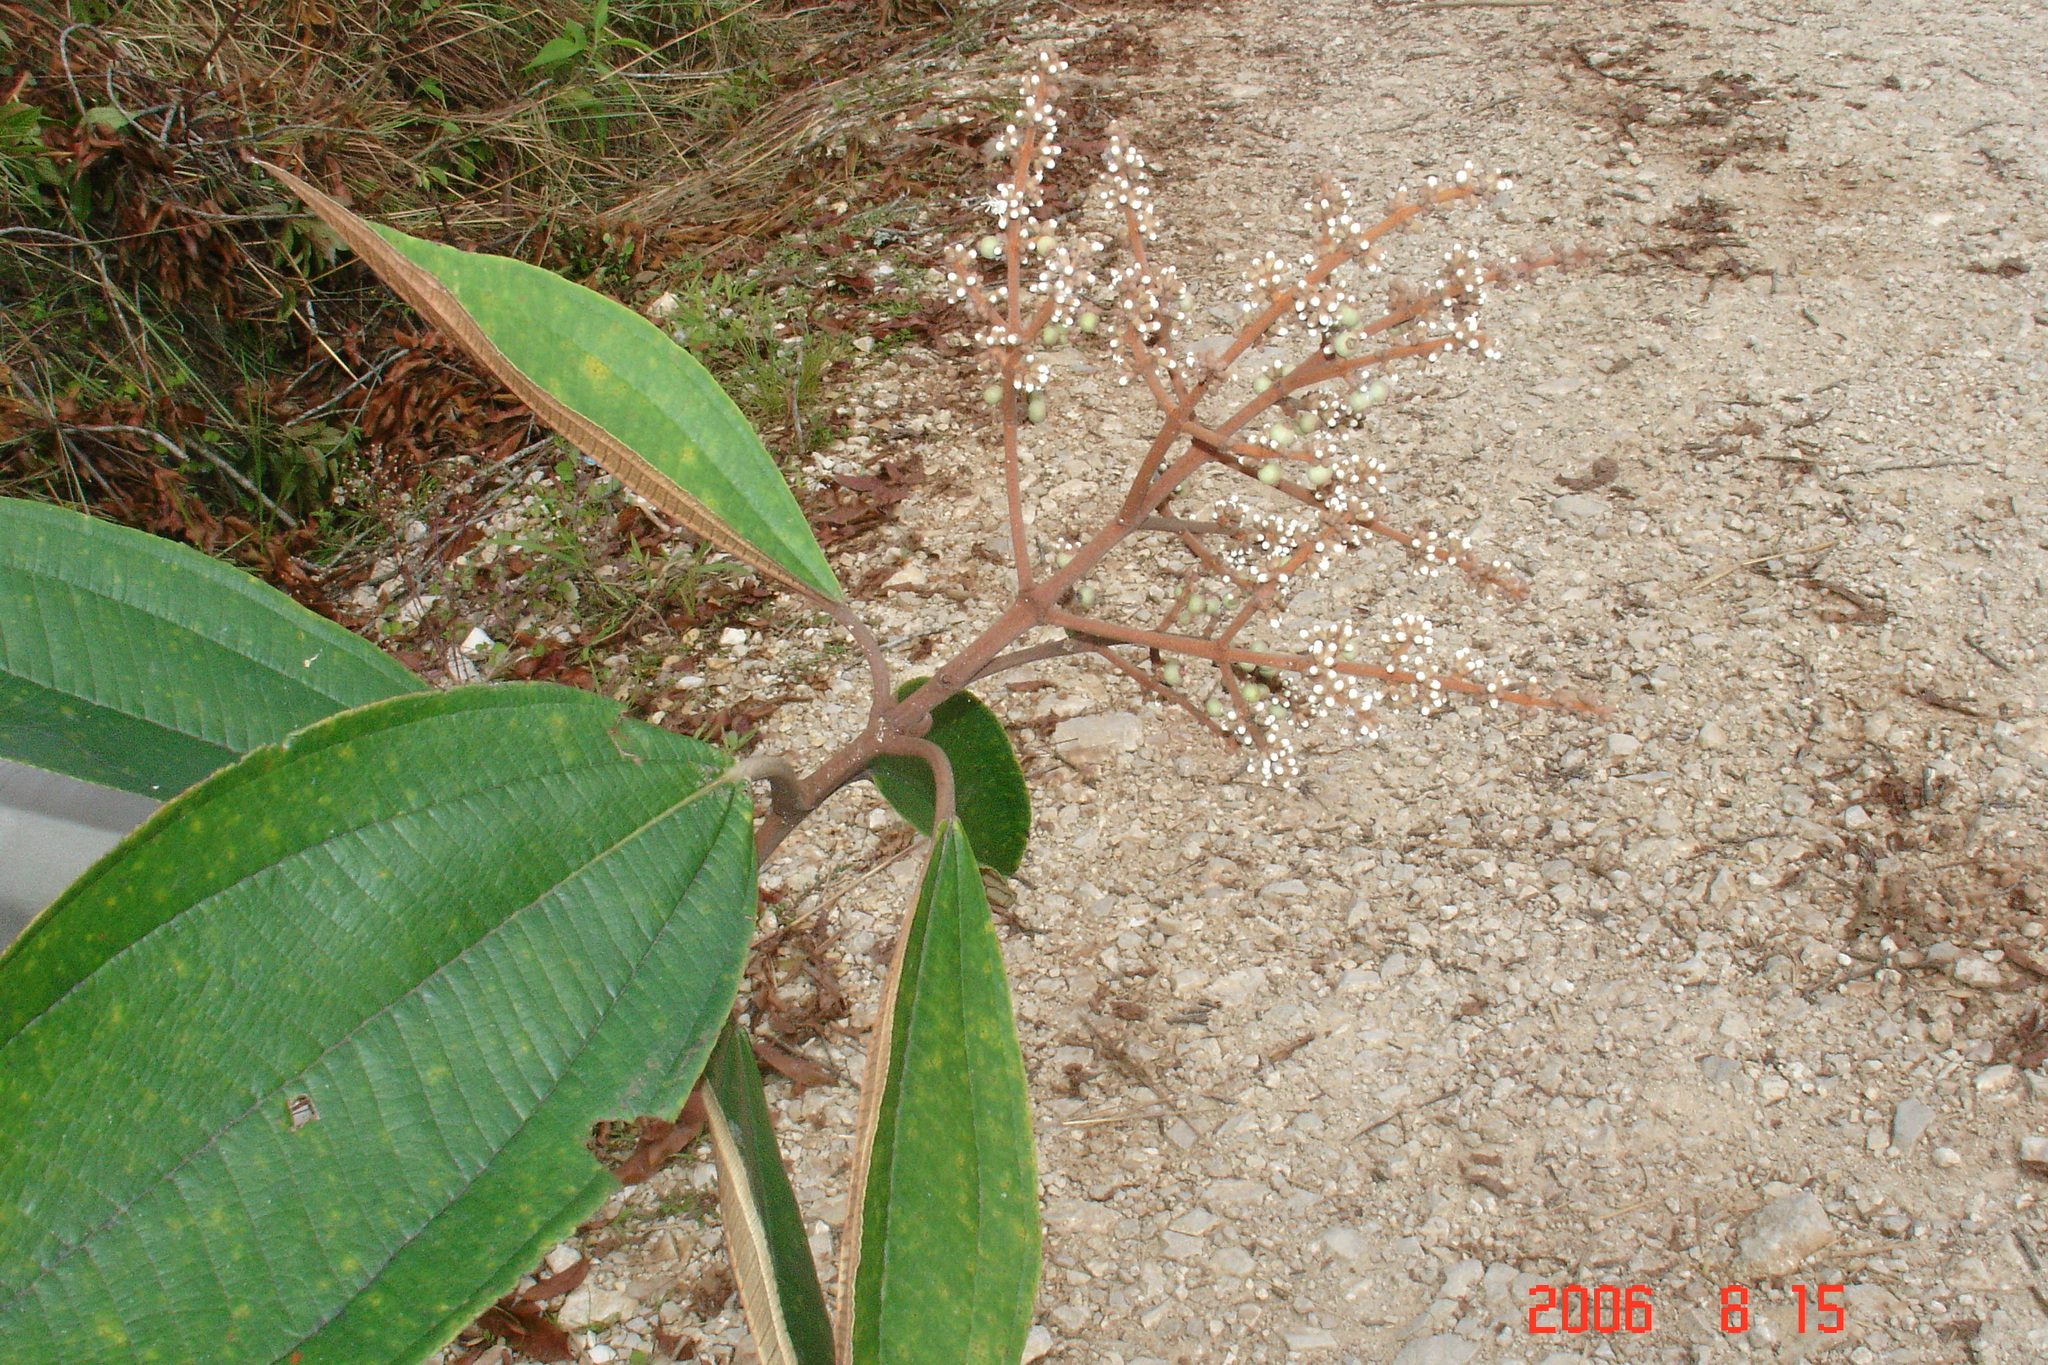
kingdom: Plantae
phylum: Tracheophyta
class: Magnoliopsida
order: Myrtales
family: Melastomataceae
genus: Miconia
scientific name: Miconia argentea
